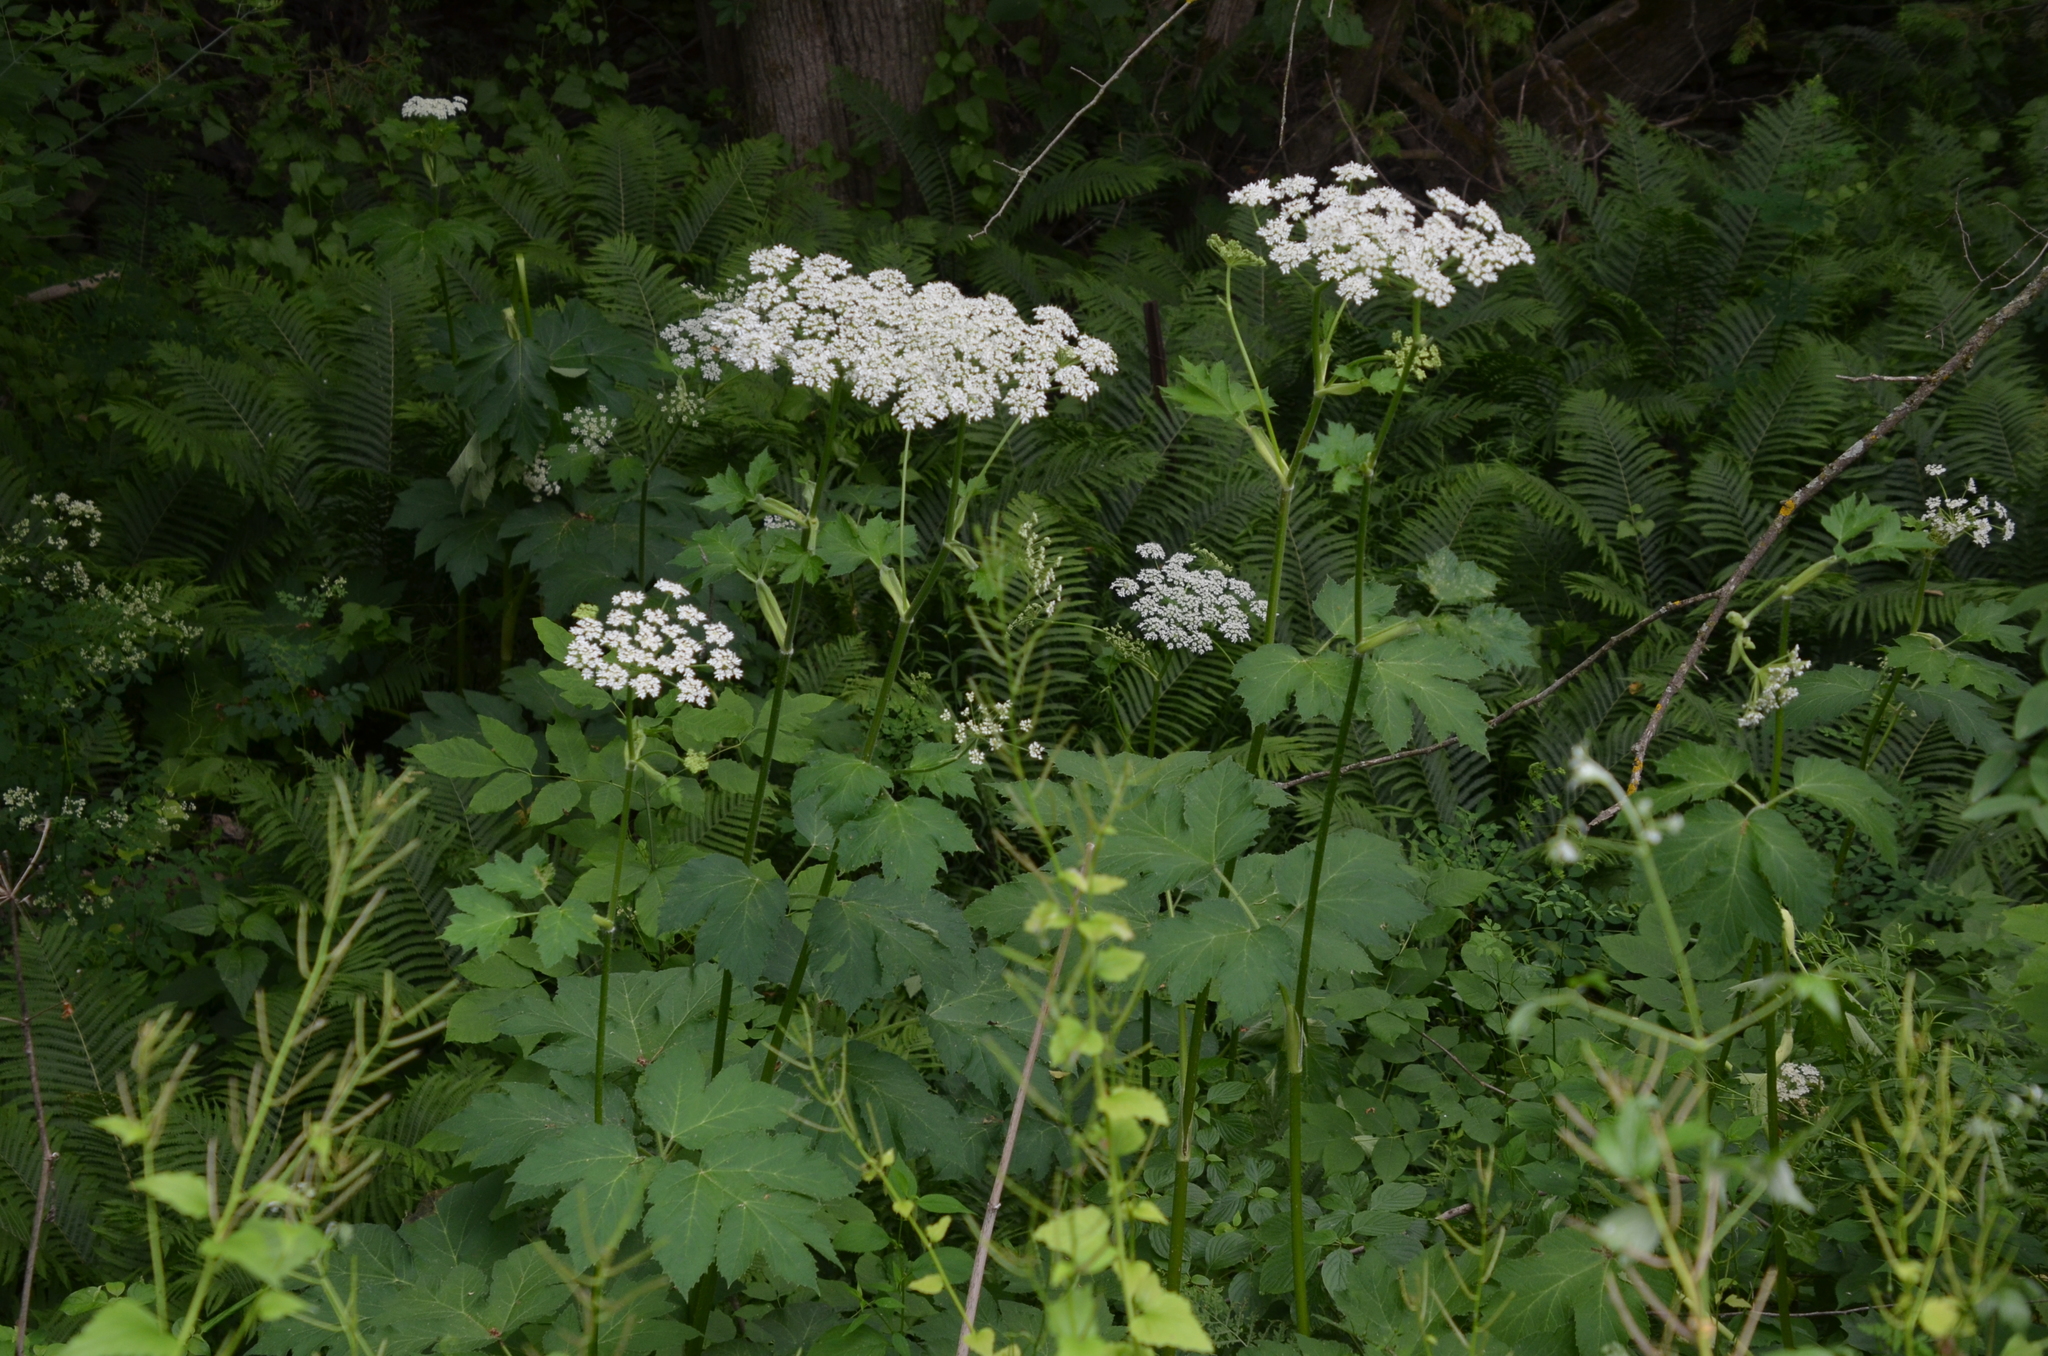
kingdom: Plantae
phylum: Tracheophyta
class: Magnoliopsida
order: Apiales
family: Apiaceae
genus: Heracleum
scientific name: Heracleum maximum
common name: American cow parsnip
